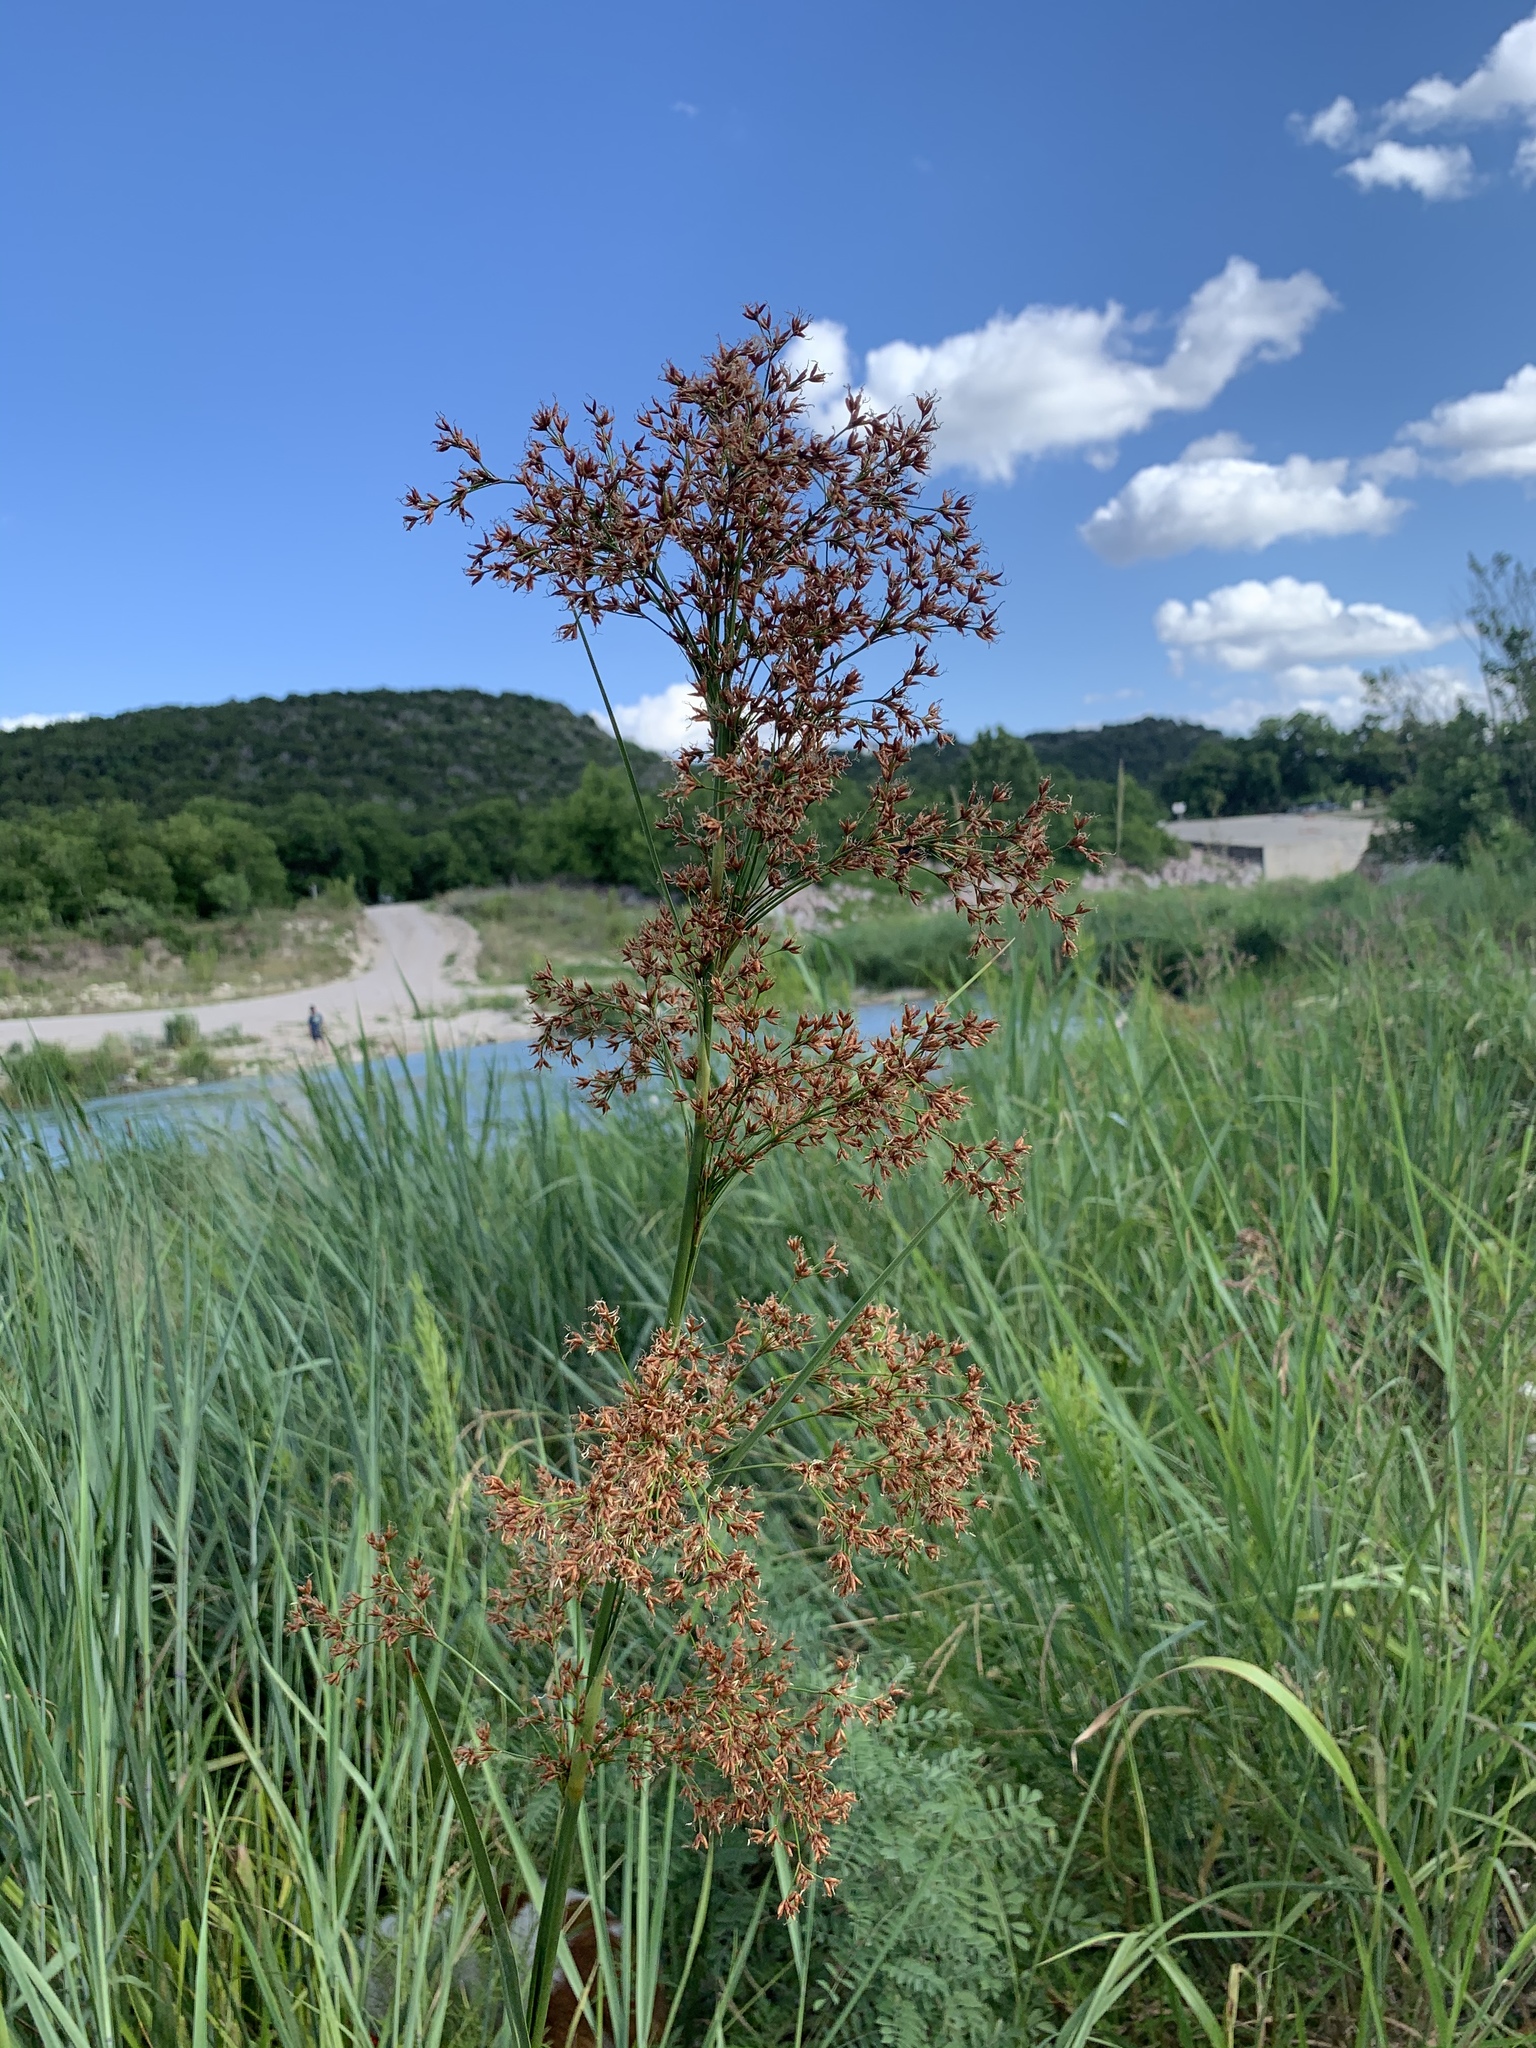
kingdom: Plantae
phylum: Tracheophyta
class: Liliopsida
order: Poales
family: Cyperaceae
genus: Cladium
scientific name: Cladium mariscus
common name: Great fen-sedge
